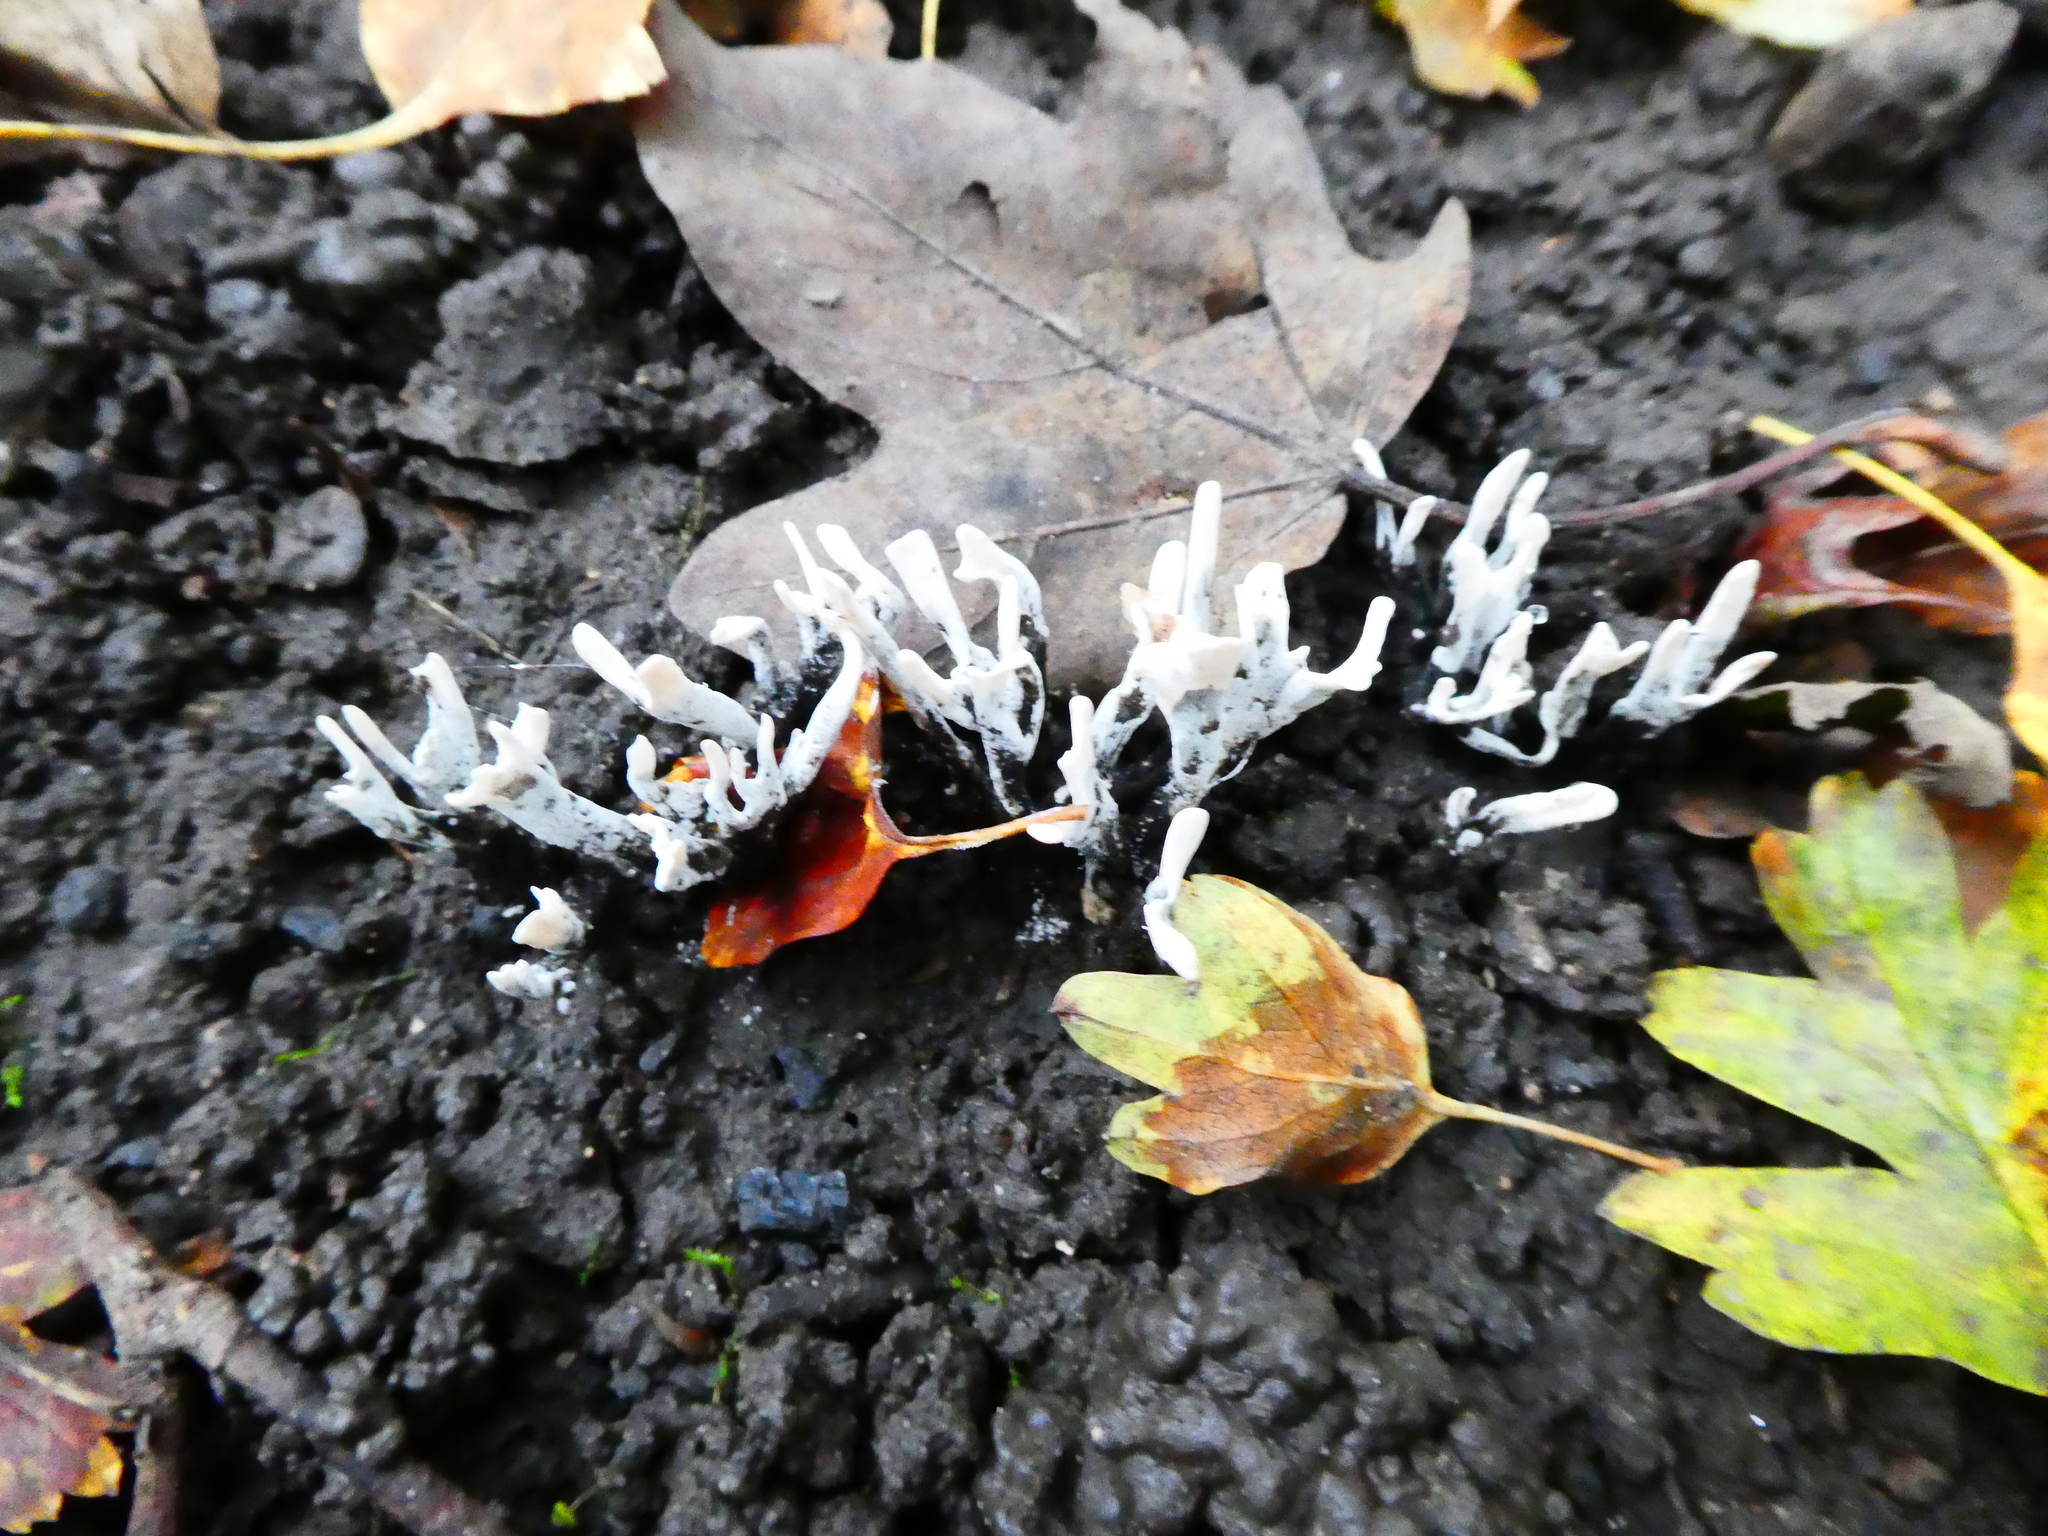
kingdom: Fungi
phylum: Ascomycota
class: Sordariomycetes
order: Xylariales
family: Xylariaceae
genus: Xylaria
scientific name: Xylaria hypoxylon
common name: Candle-snuff fungus
